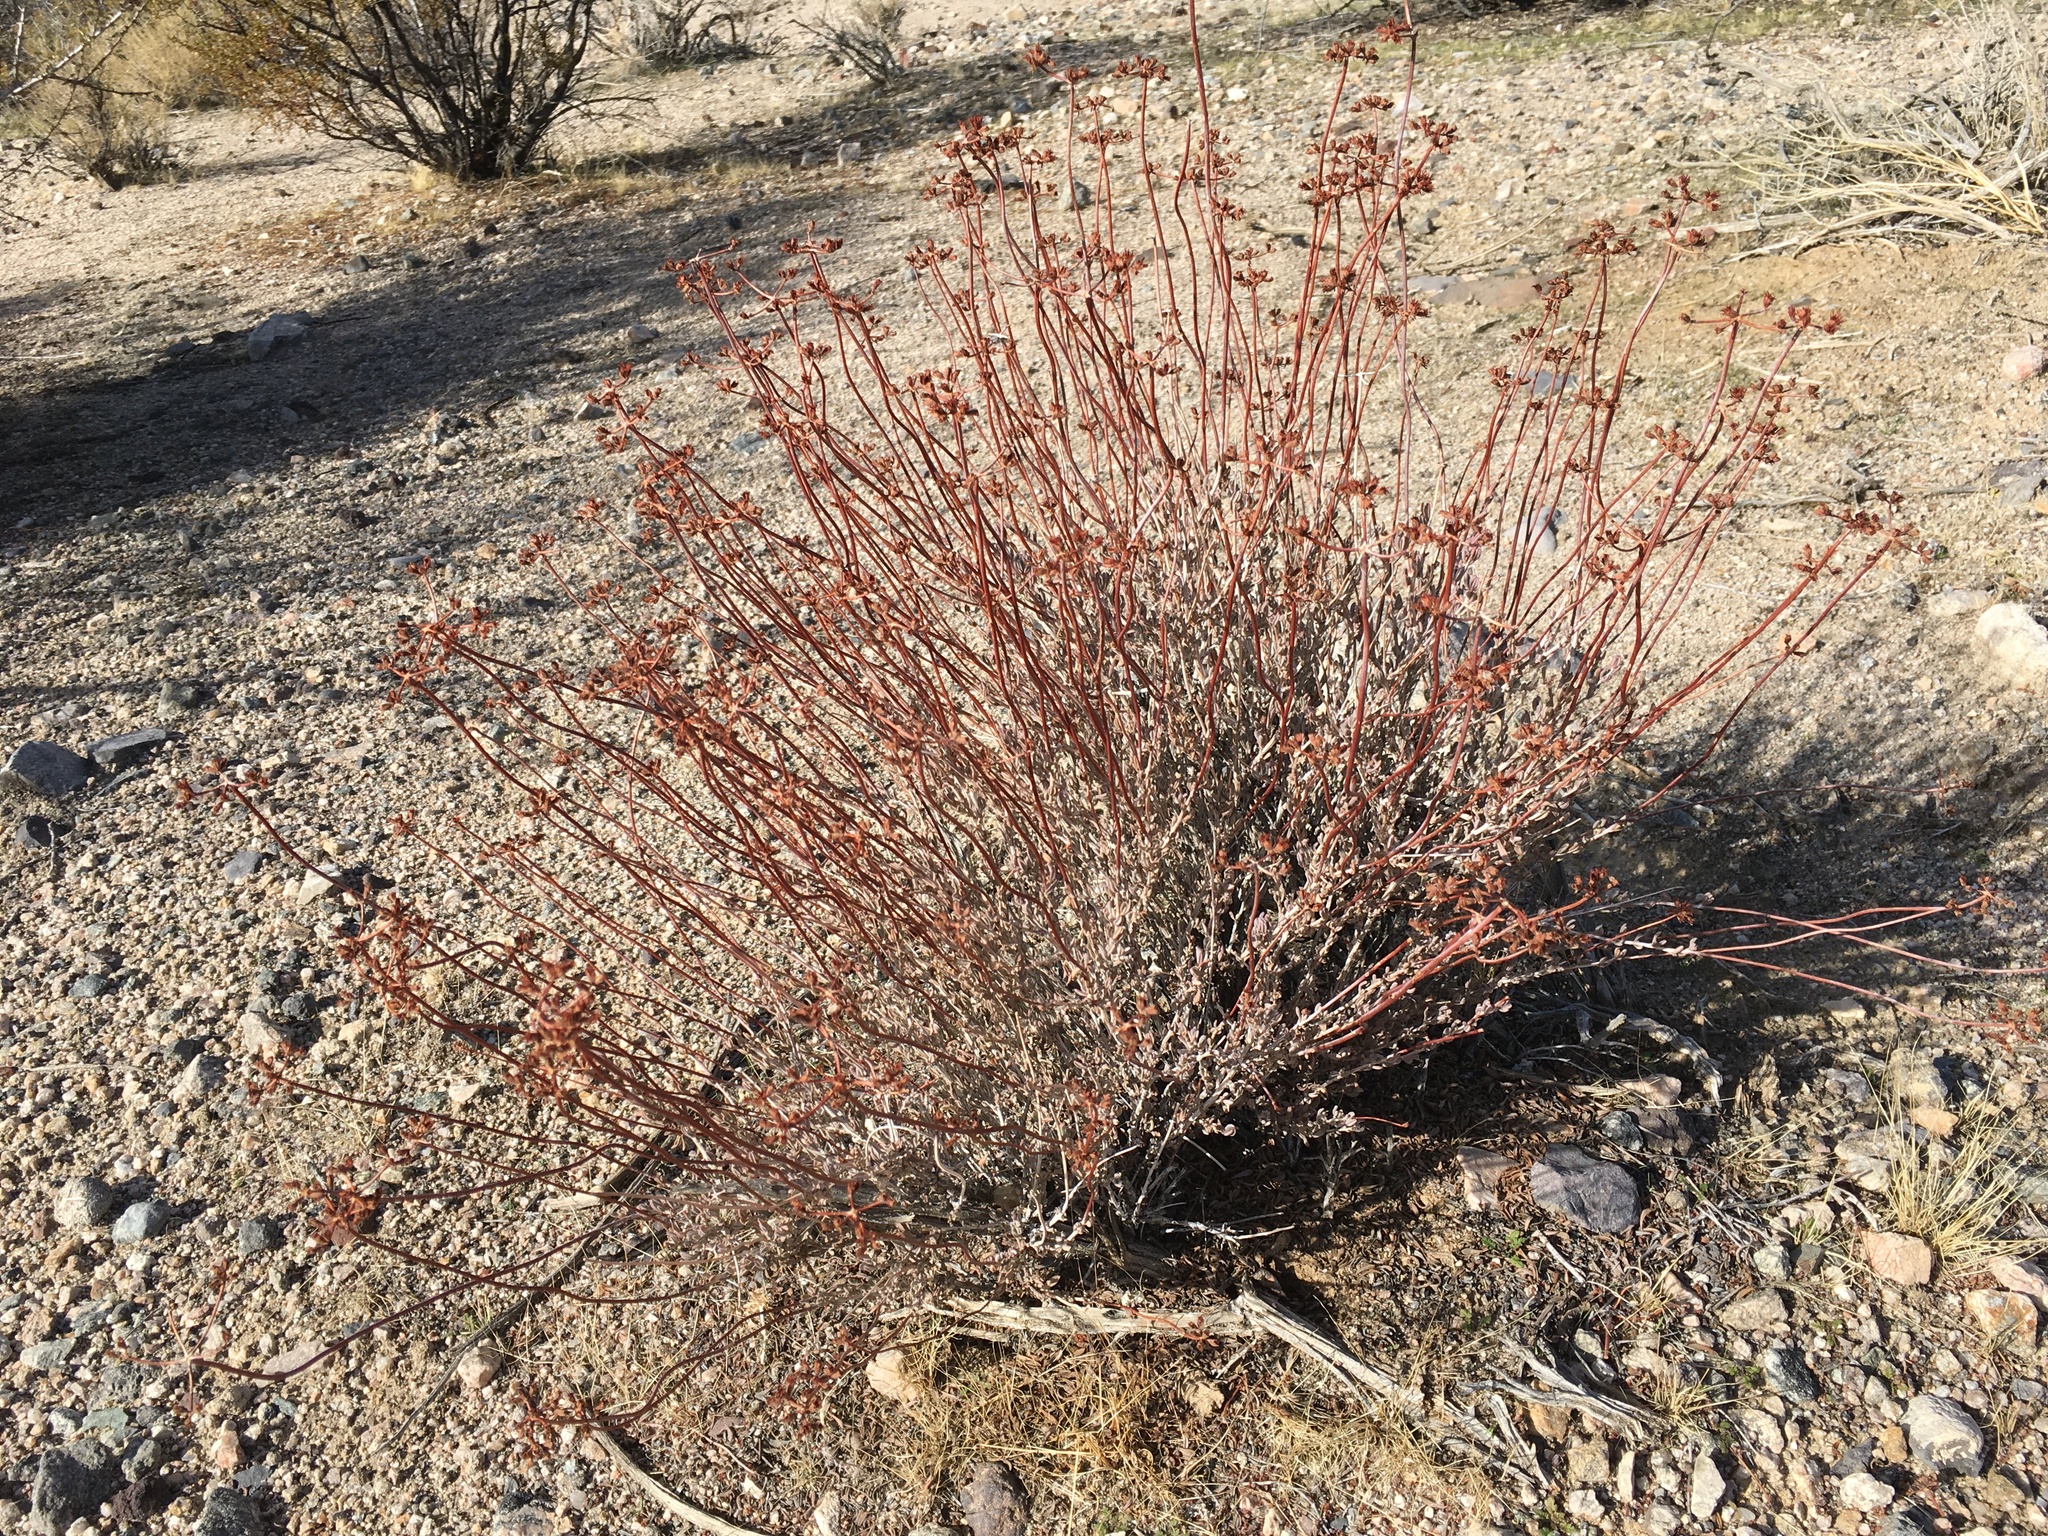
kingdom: Plantae
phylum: Tracheophyta
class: Magnoliopsida
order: Caryophyllales
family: Polygonaceae
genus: Eriogonum
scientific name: Eriogonum fasciculatum
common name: California wild buckwheat
